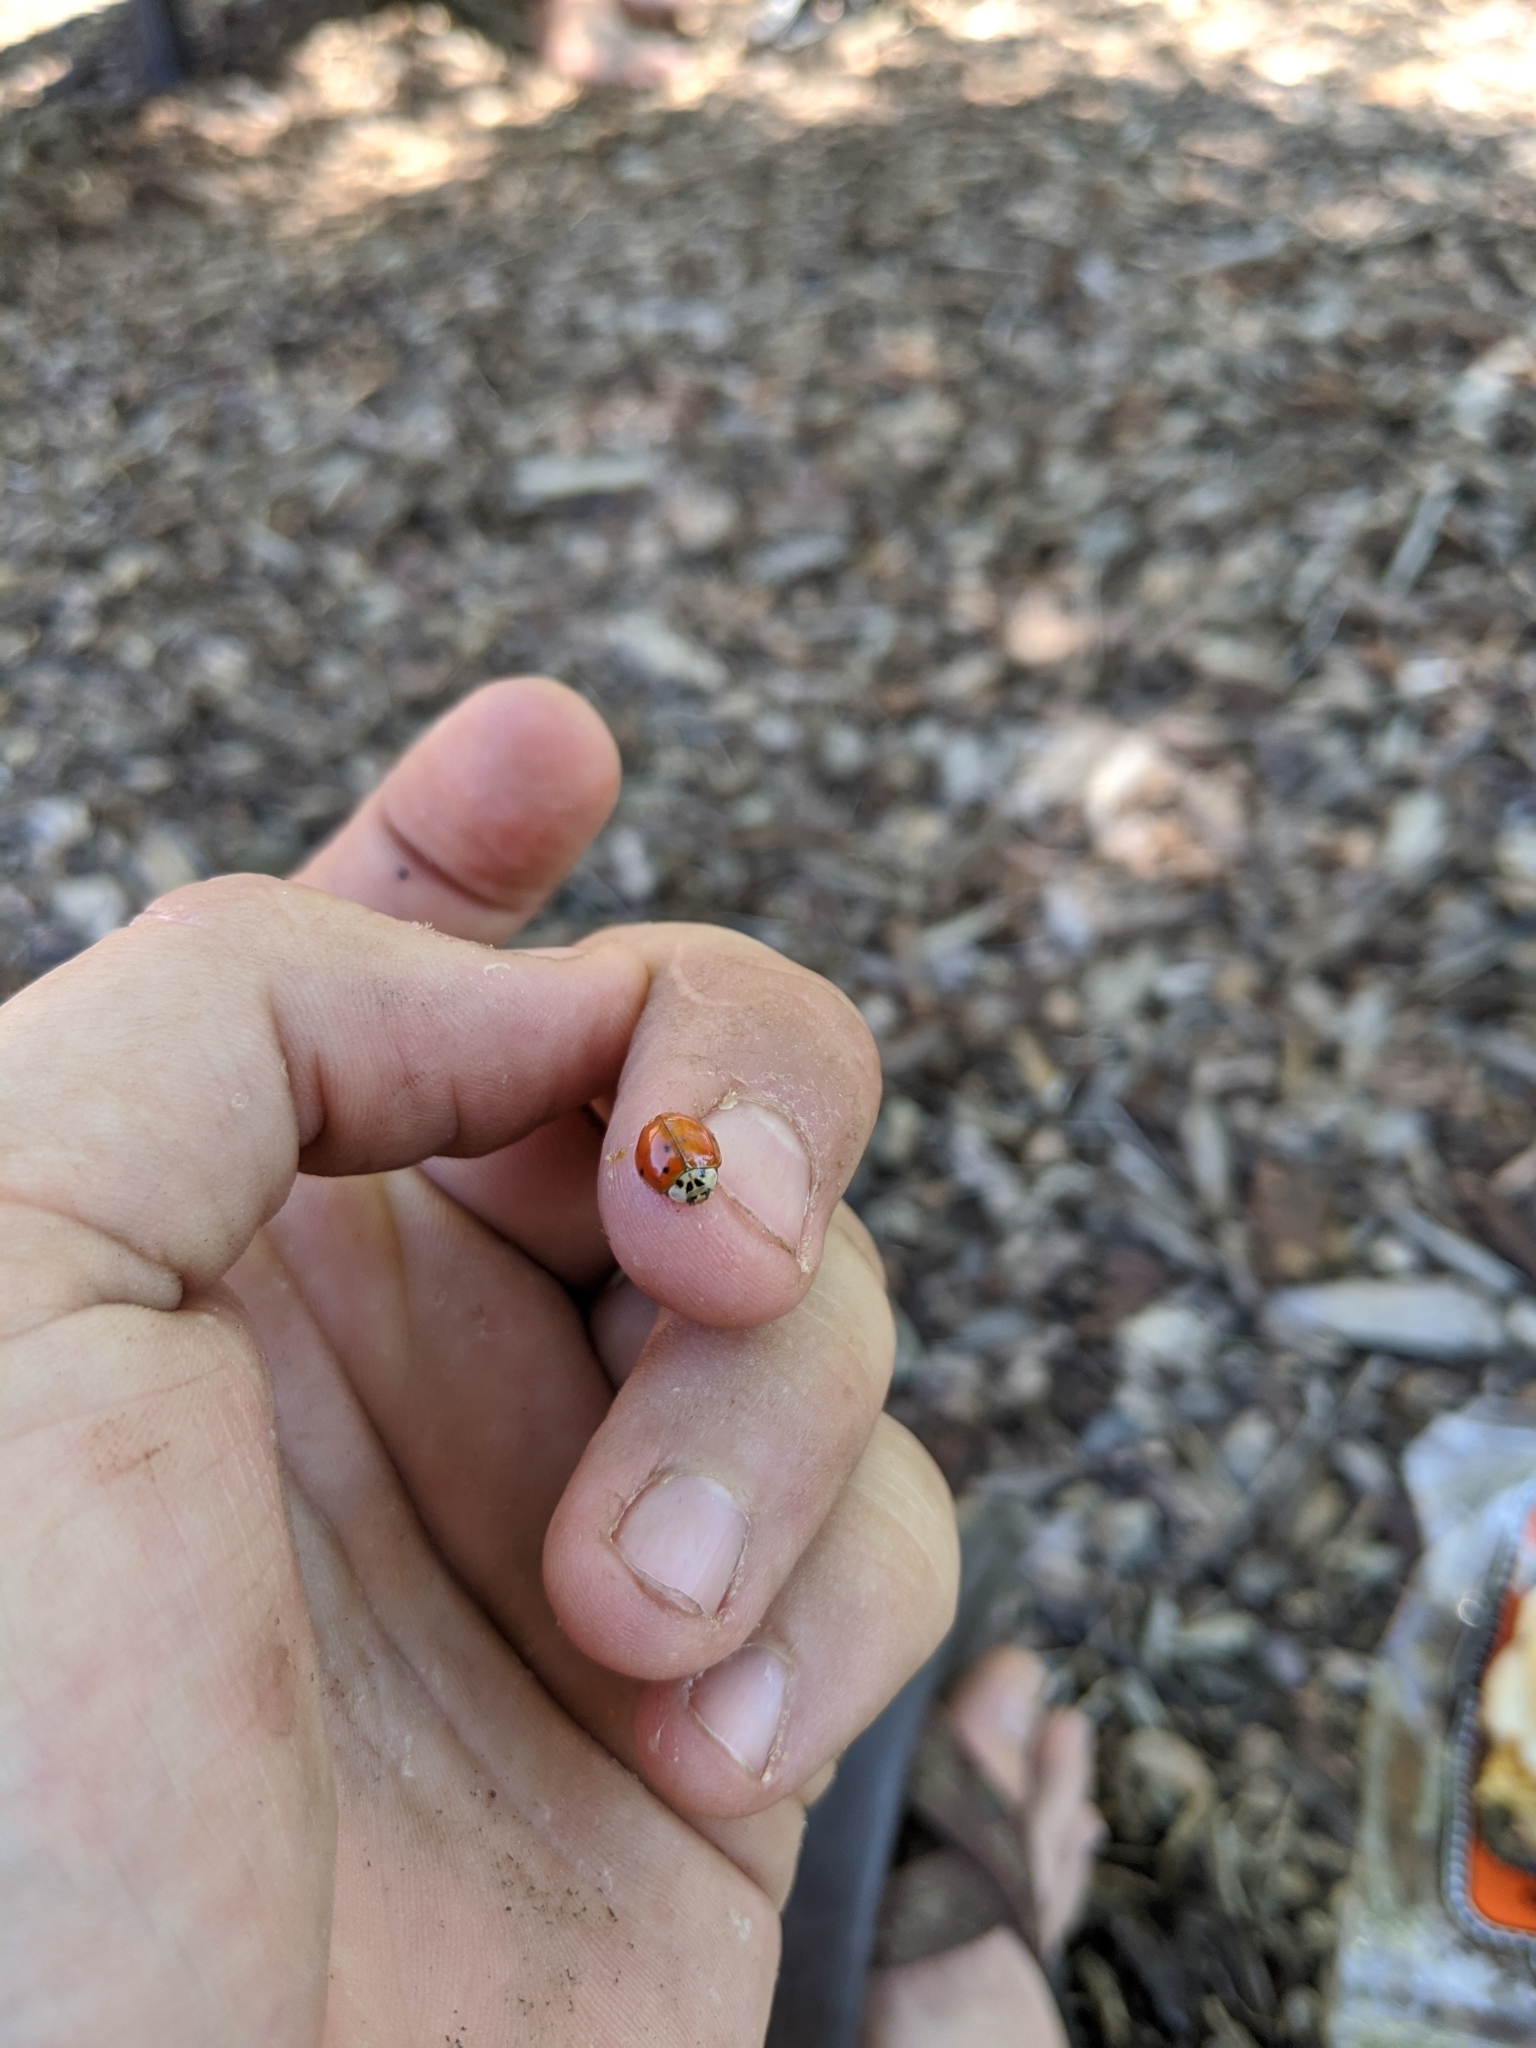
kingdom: Animalia
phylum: Arthropoda
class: Insecta
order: Coleoptera
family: Coccinellidae
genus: Harmonia
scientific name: Harmonia axyridis
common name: Harlequin ladybird
